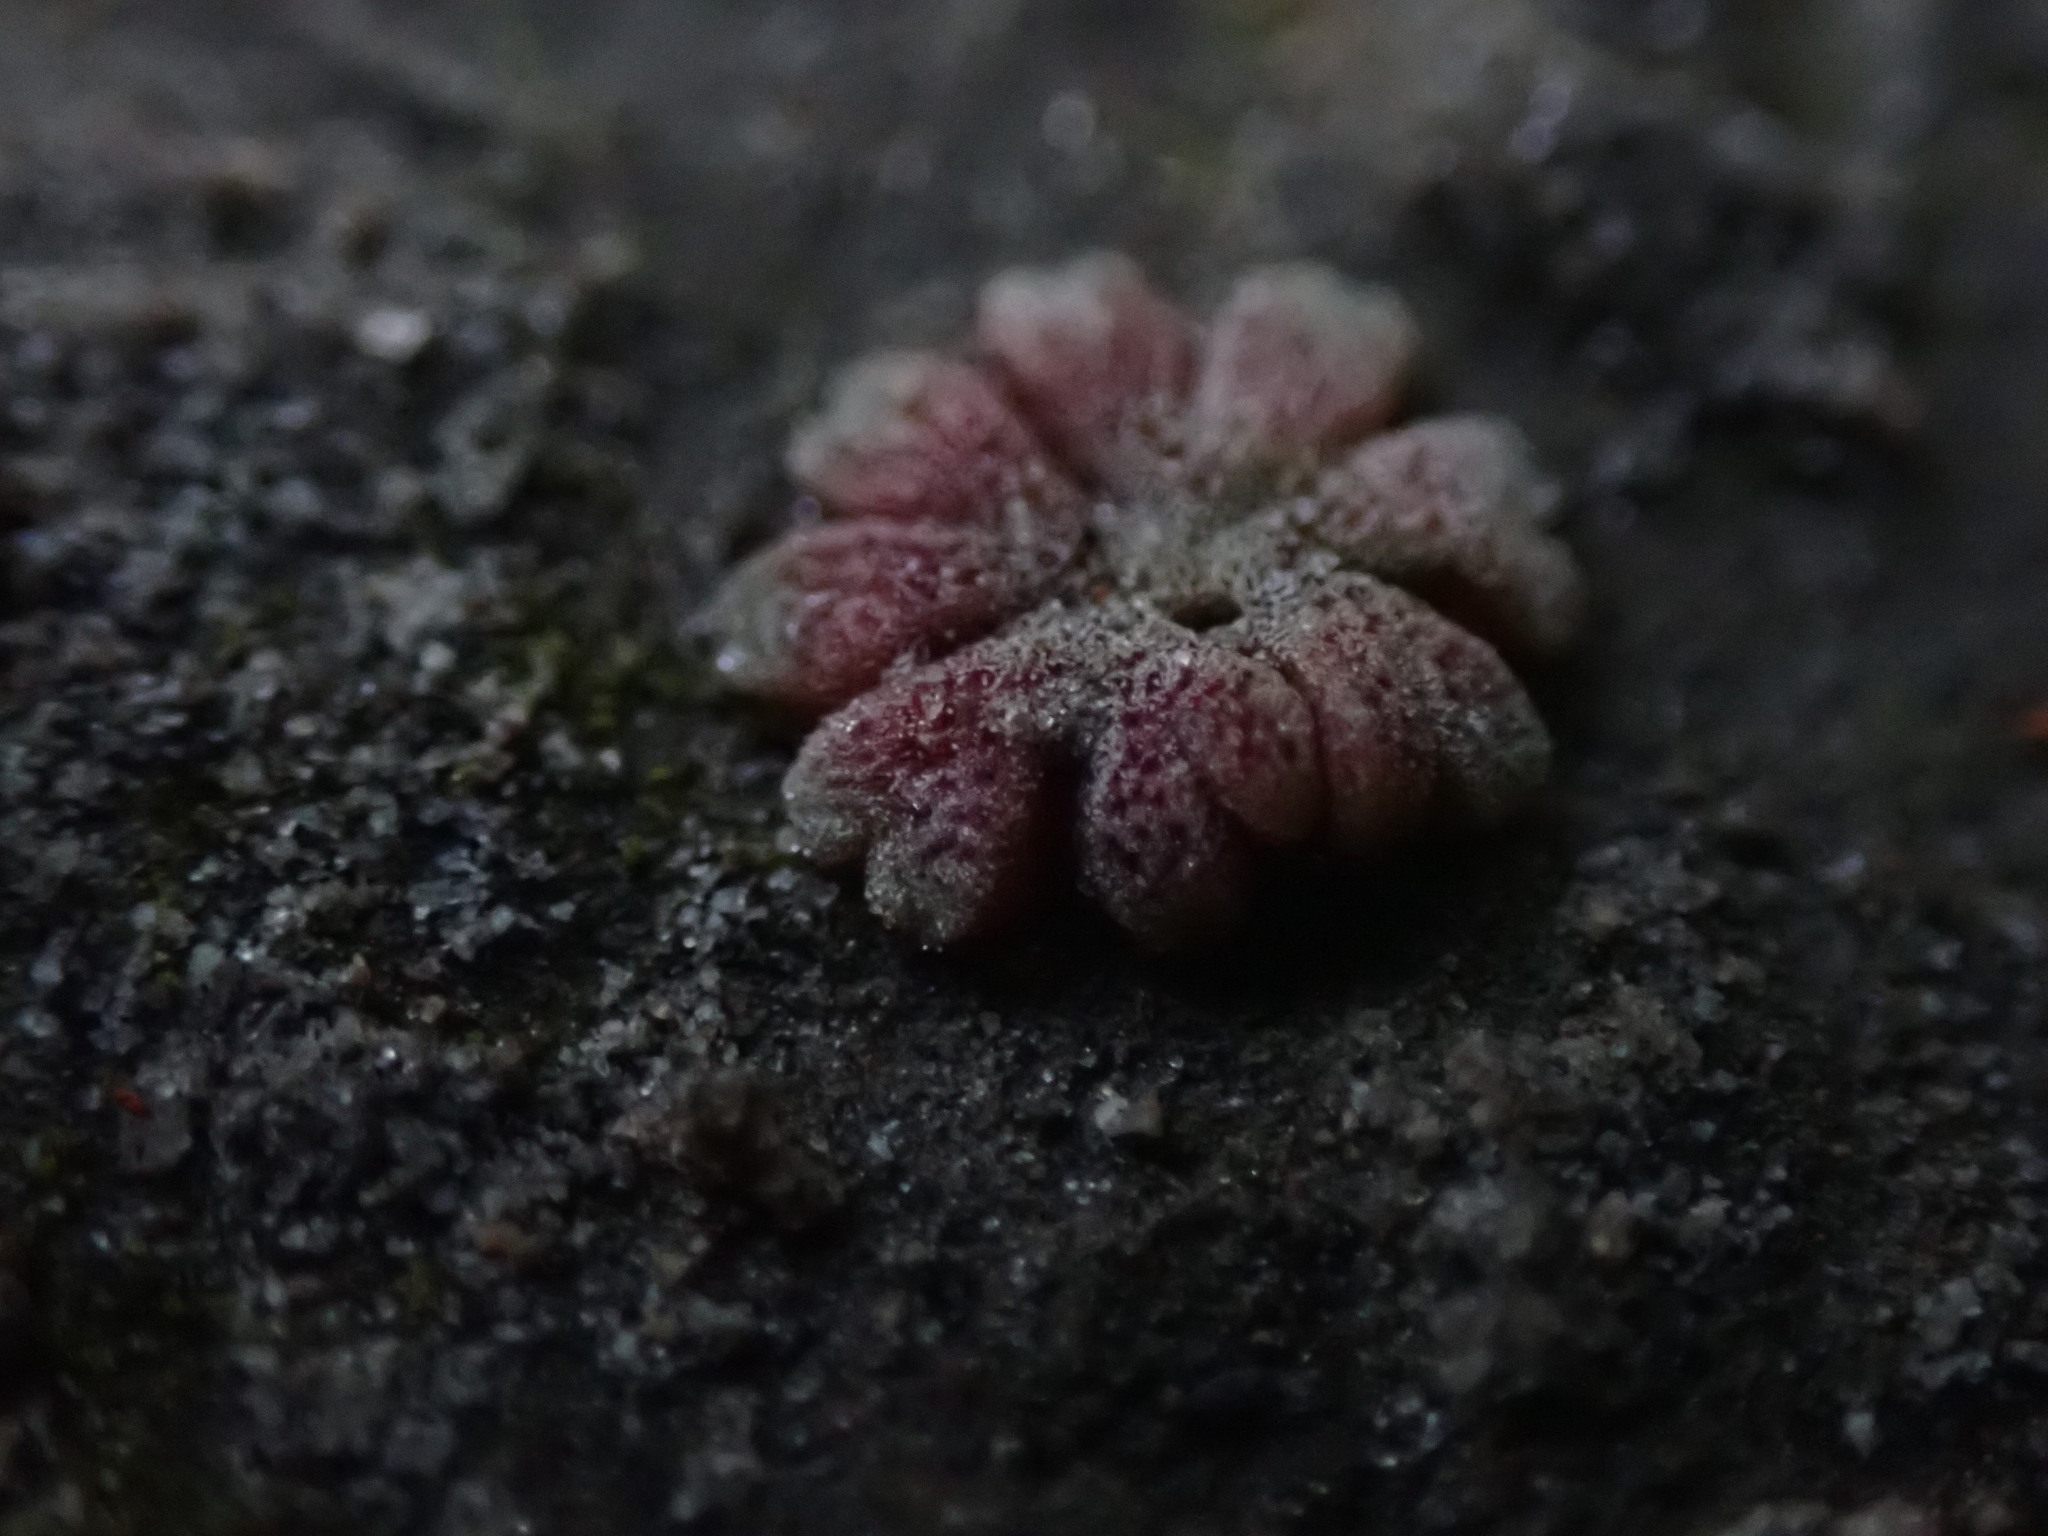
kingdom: Plantae
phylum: Marchantiophyta
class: Marchantiopsida
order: Marchantiales
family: Ricciaceae
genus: Riccia
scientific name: Riccia frostii
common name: Frost s crystalwort
